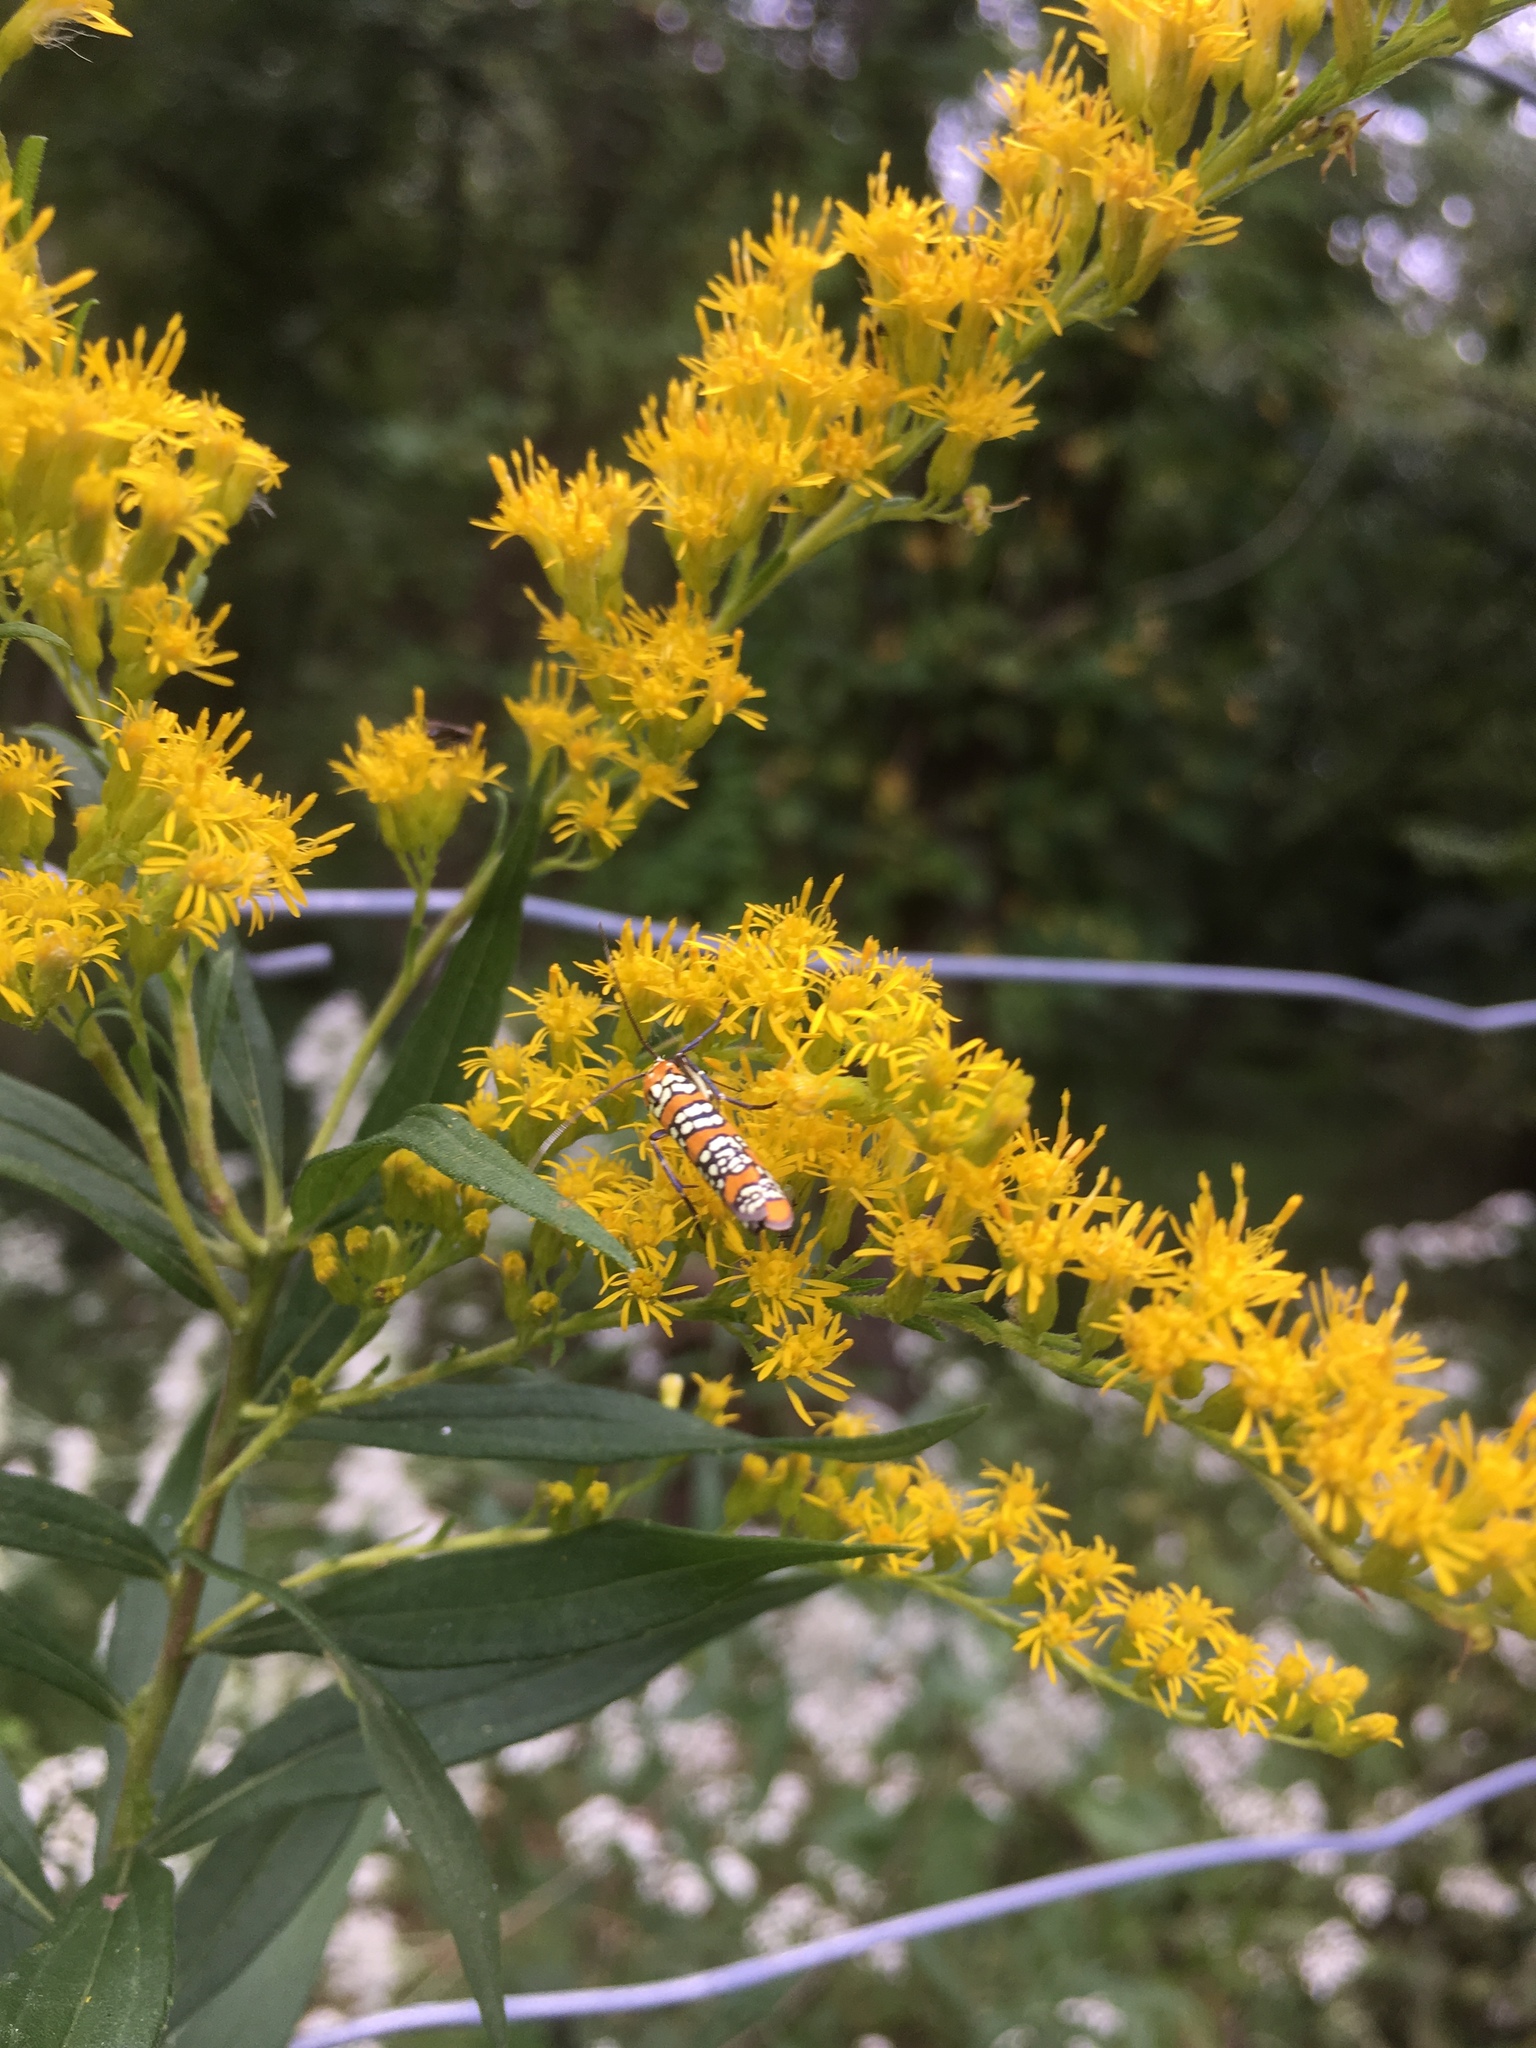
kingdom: Animalia
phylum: Arthropoda
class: Insecta
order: Lepidoptera
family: Attevidae
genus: Atteva
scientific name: Atteva punctella
